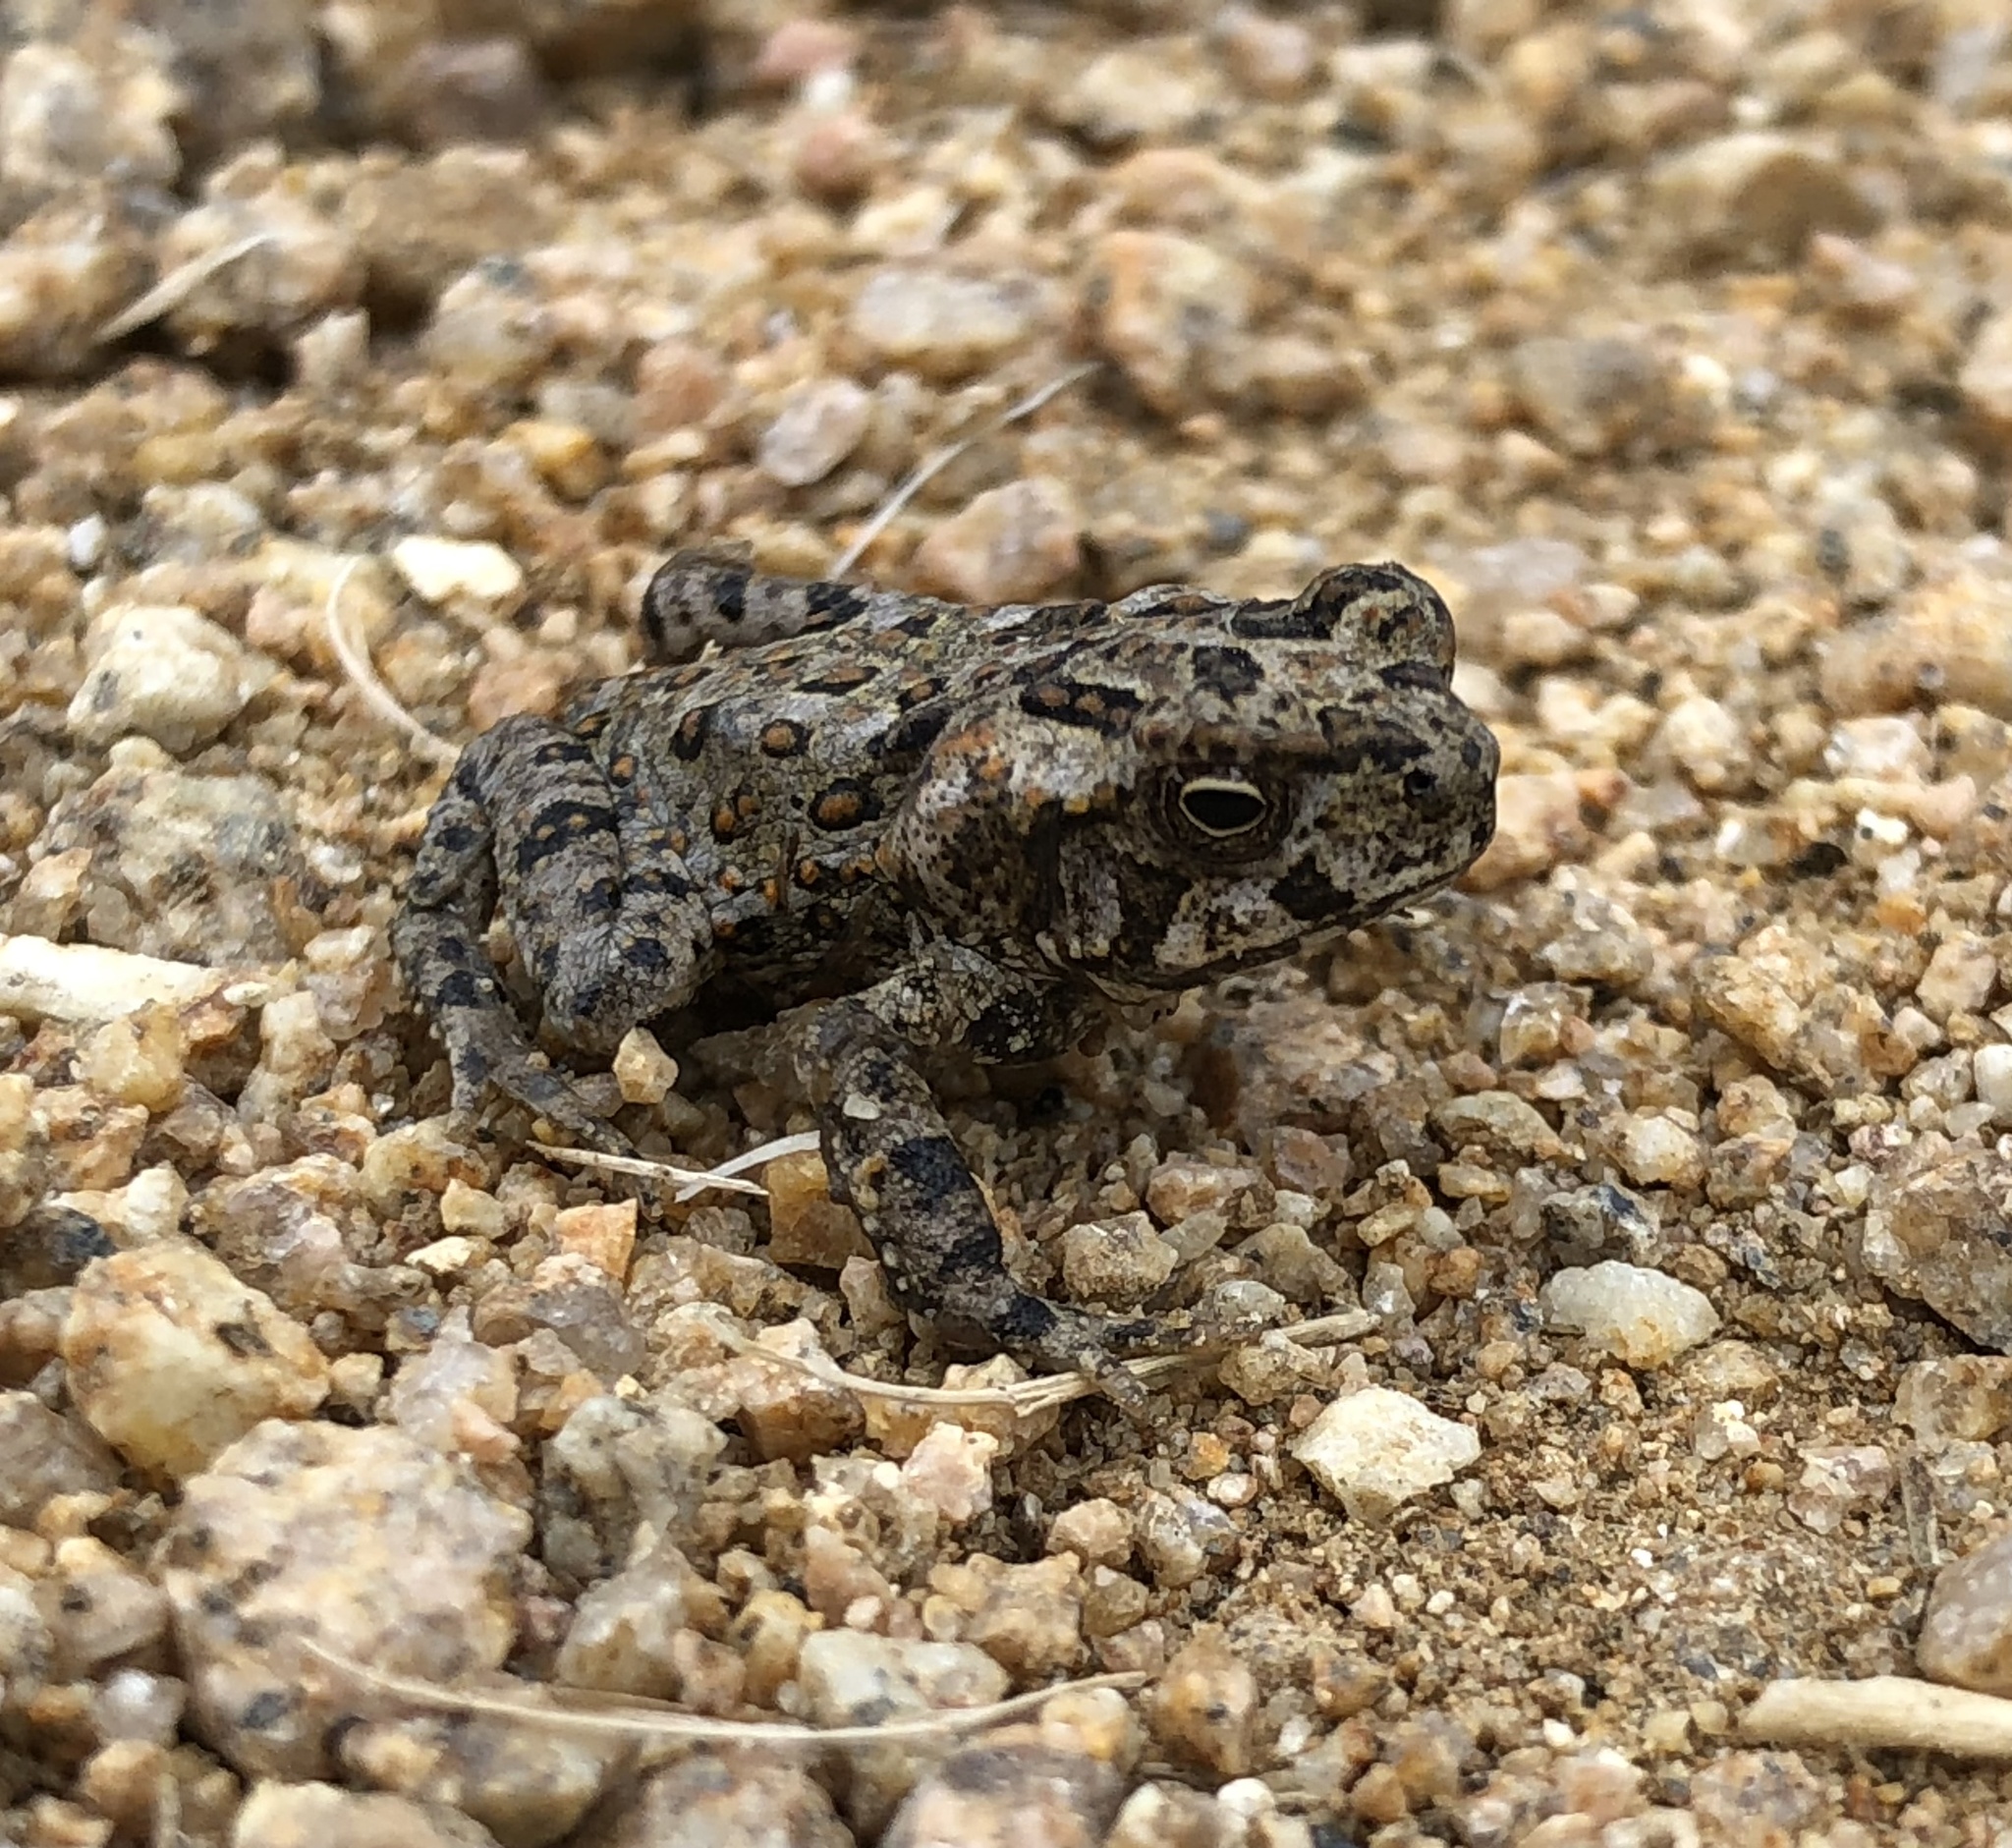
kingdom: Animalia
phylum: Chordata
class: Amphibia
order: Anura
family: Bufonidae
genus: Rhinella
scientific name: Rhinella marina
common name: Cane toad
